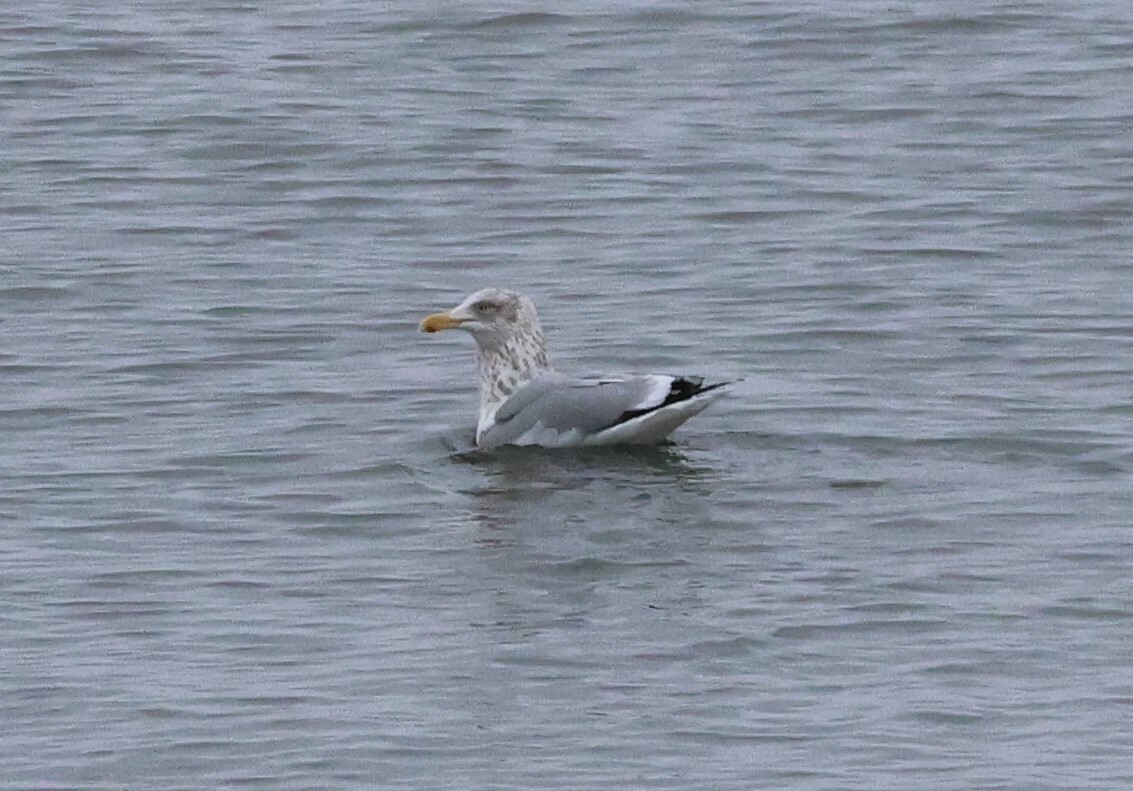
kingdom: Animalia
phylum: Chordata
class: Aves
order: Charadriiformes
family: Laridae
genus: Larus
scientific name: Larus argentatus
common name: Herring gull
